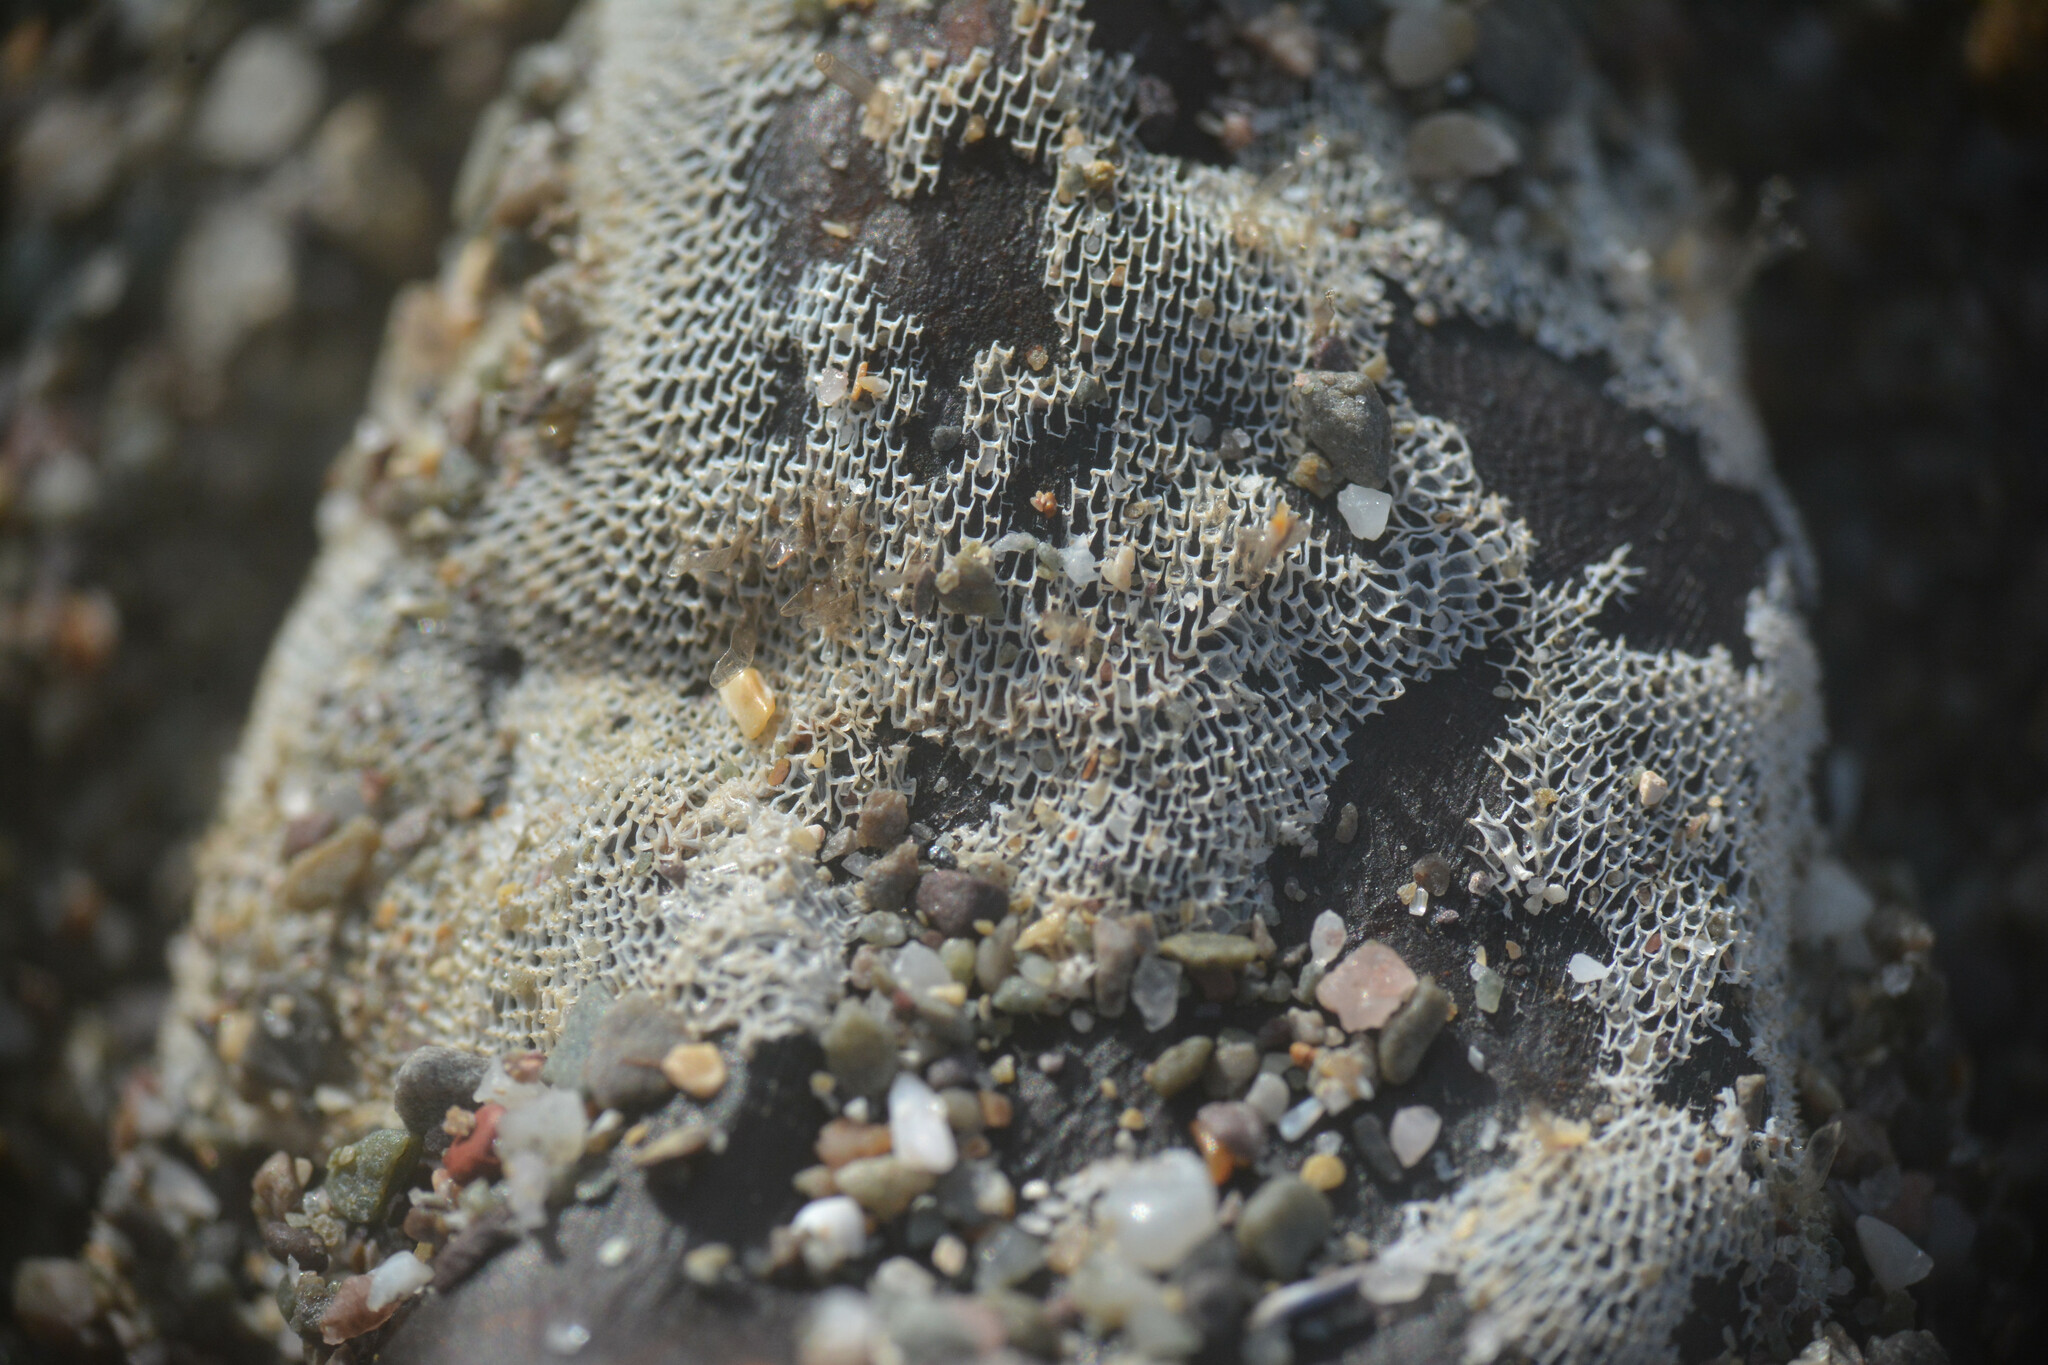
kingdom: Animalia
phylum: Bryozoa
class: Gymnolaemata
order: Cheilostomatida
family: Membraniporidae
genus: Membranipora
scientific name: Membranipora membranacea
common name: Sea mat
